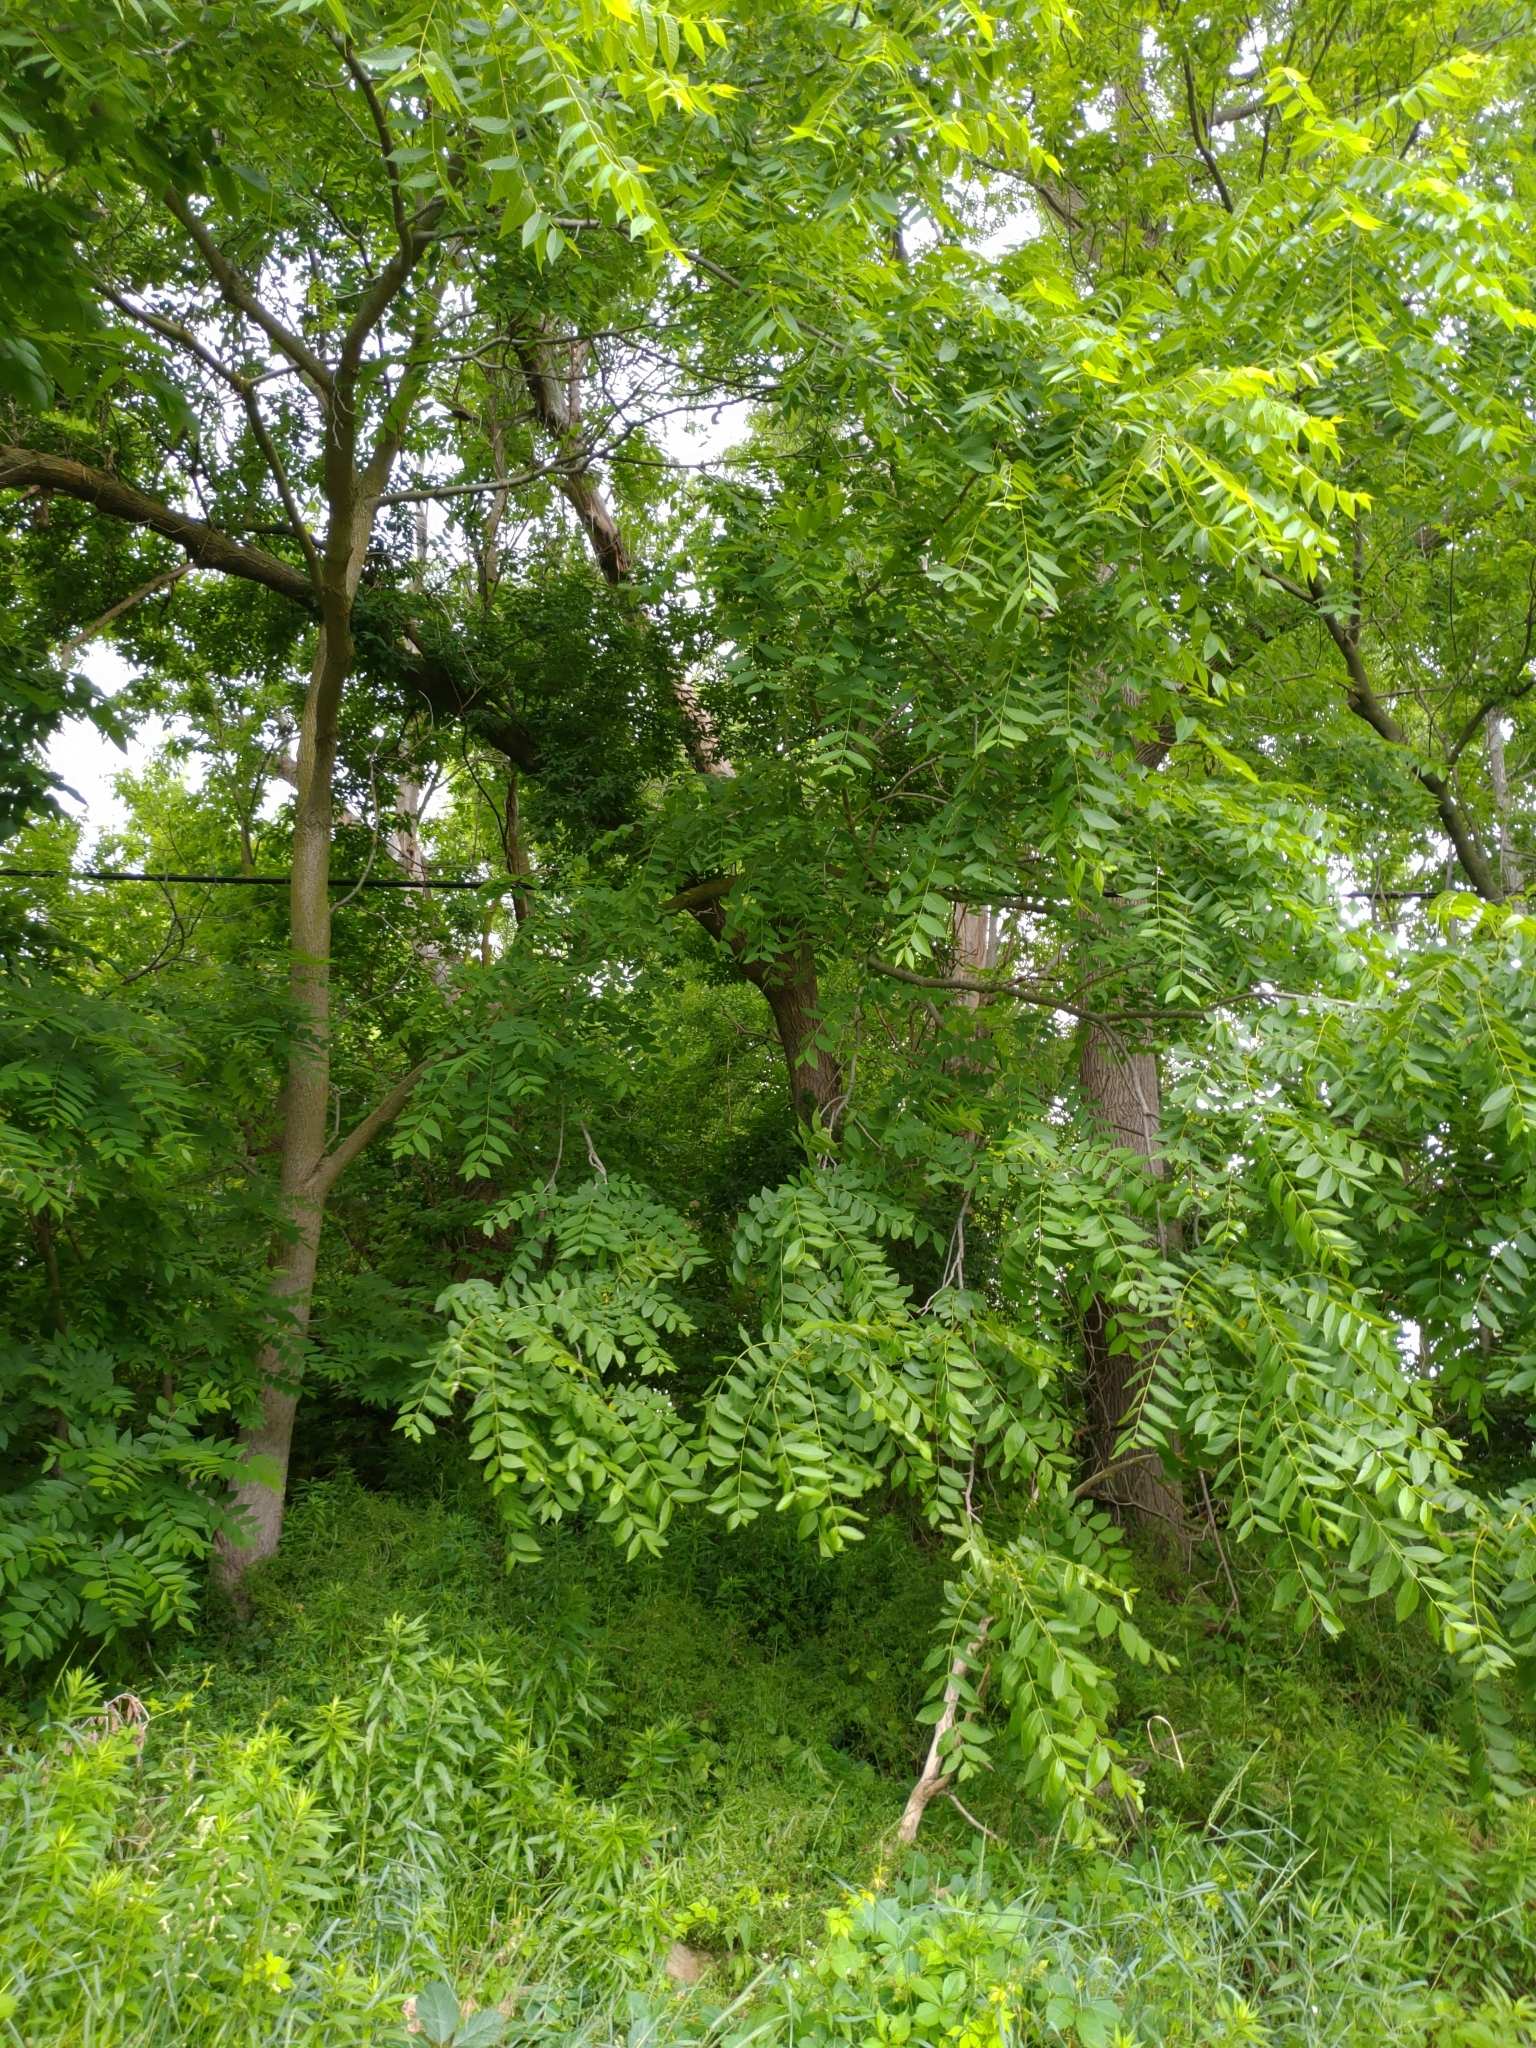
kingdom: Plantae
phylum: Tracheophyta
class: Magnoliopsida
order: Fagales
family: Juglandaceae
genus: Juglans
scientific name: Juglans nigra
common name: Black walnut
